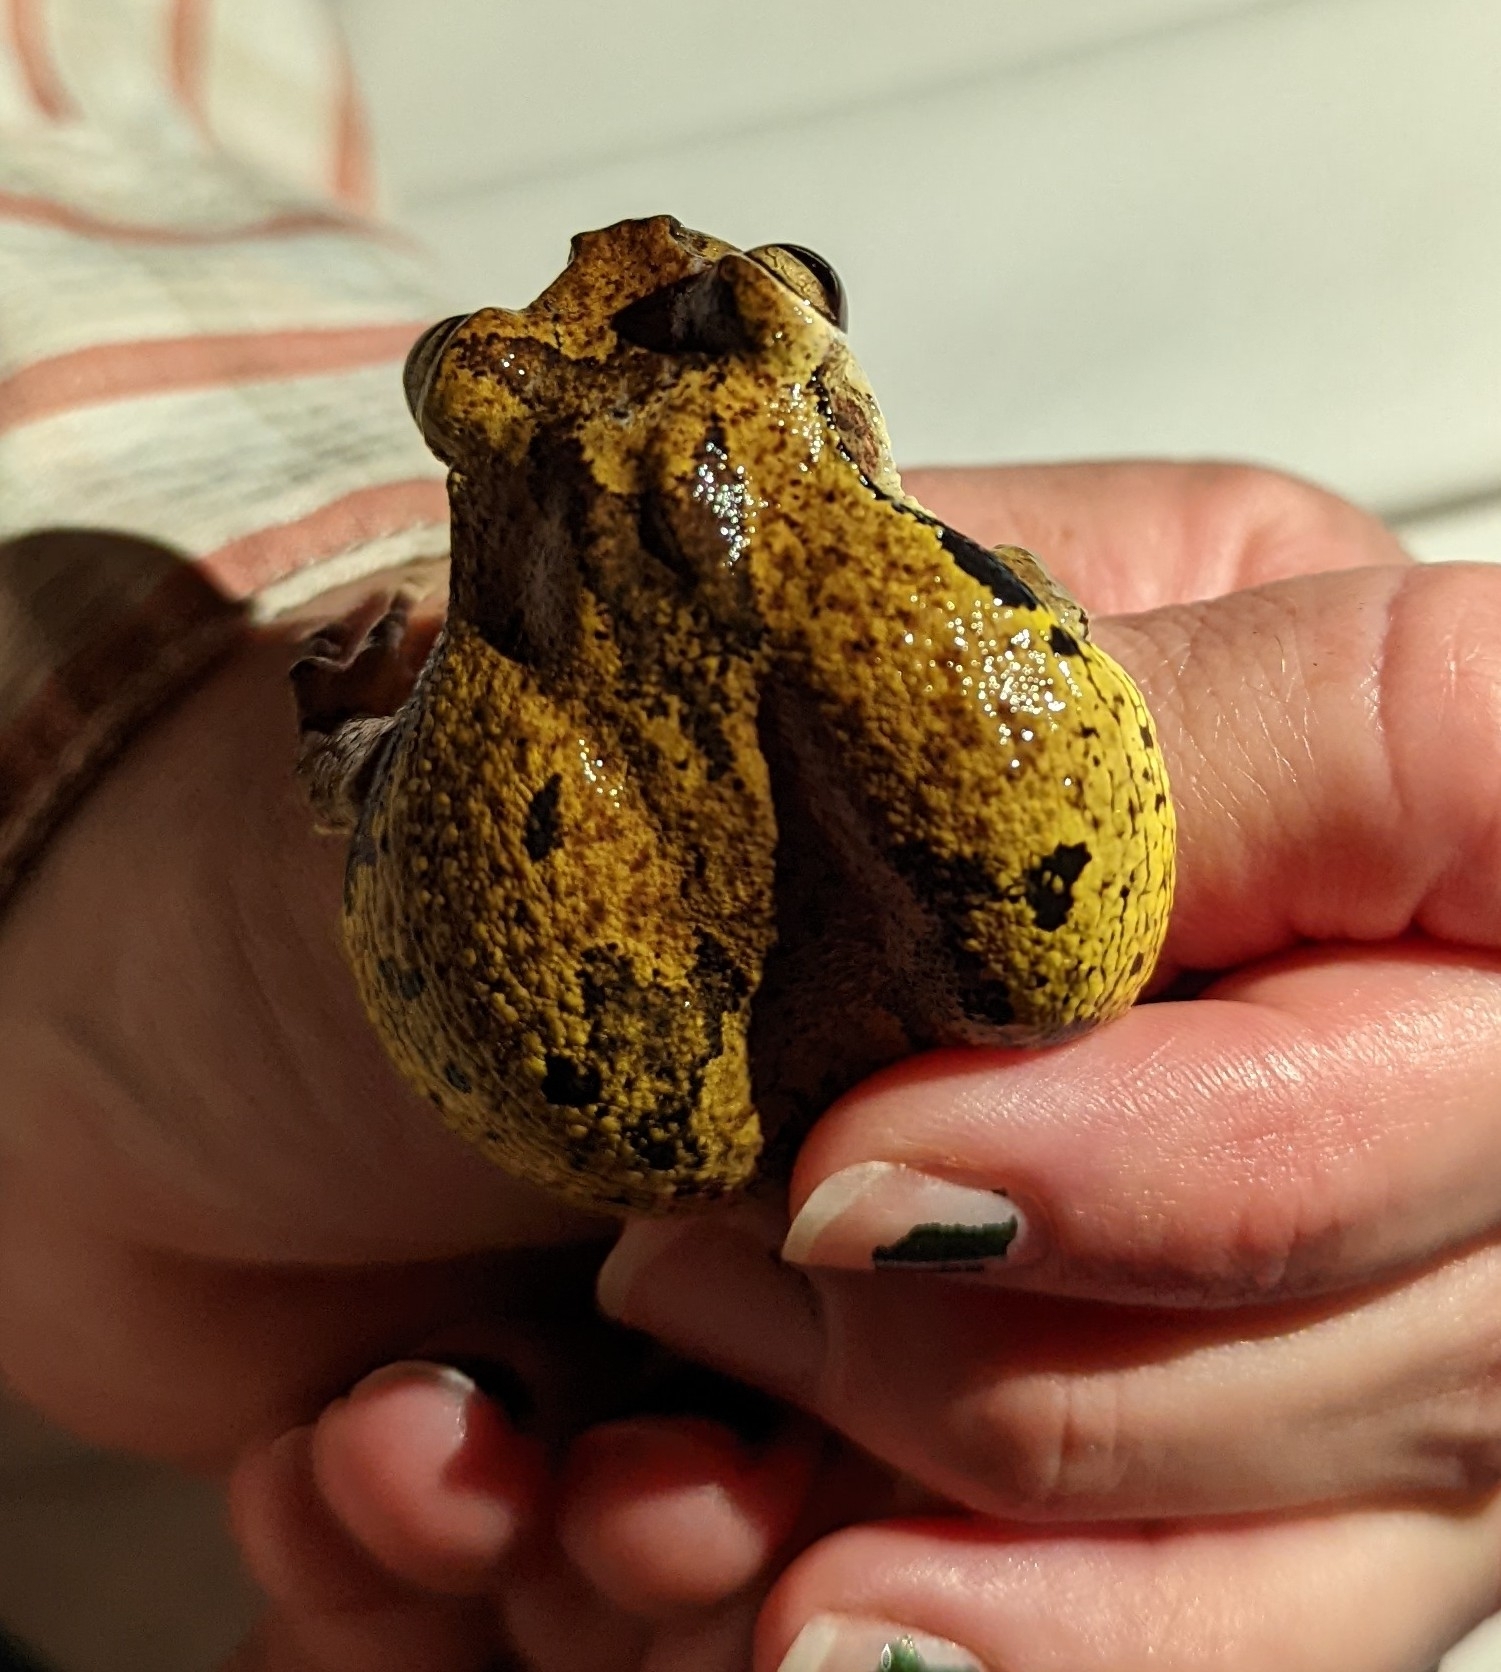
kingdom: Animalia
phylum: Chordata
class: Amphibia
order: Anura
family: Hylidae
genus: Smilisca
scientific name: Smilisca baudinii
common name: Mexican smilisca
